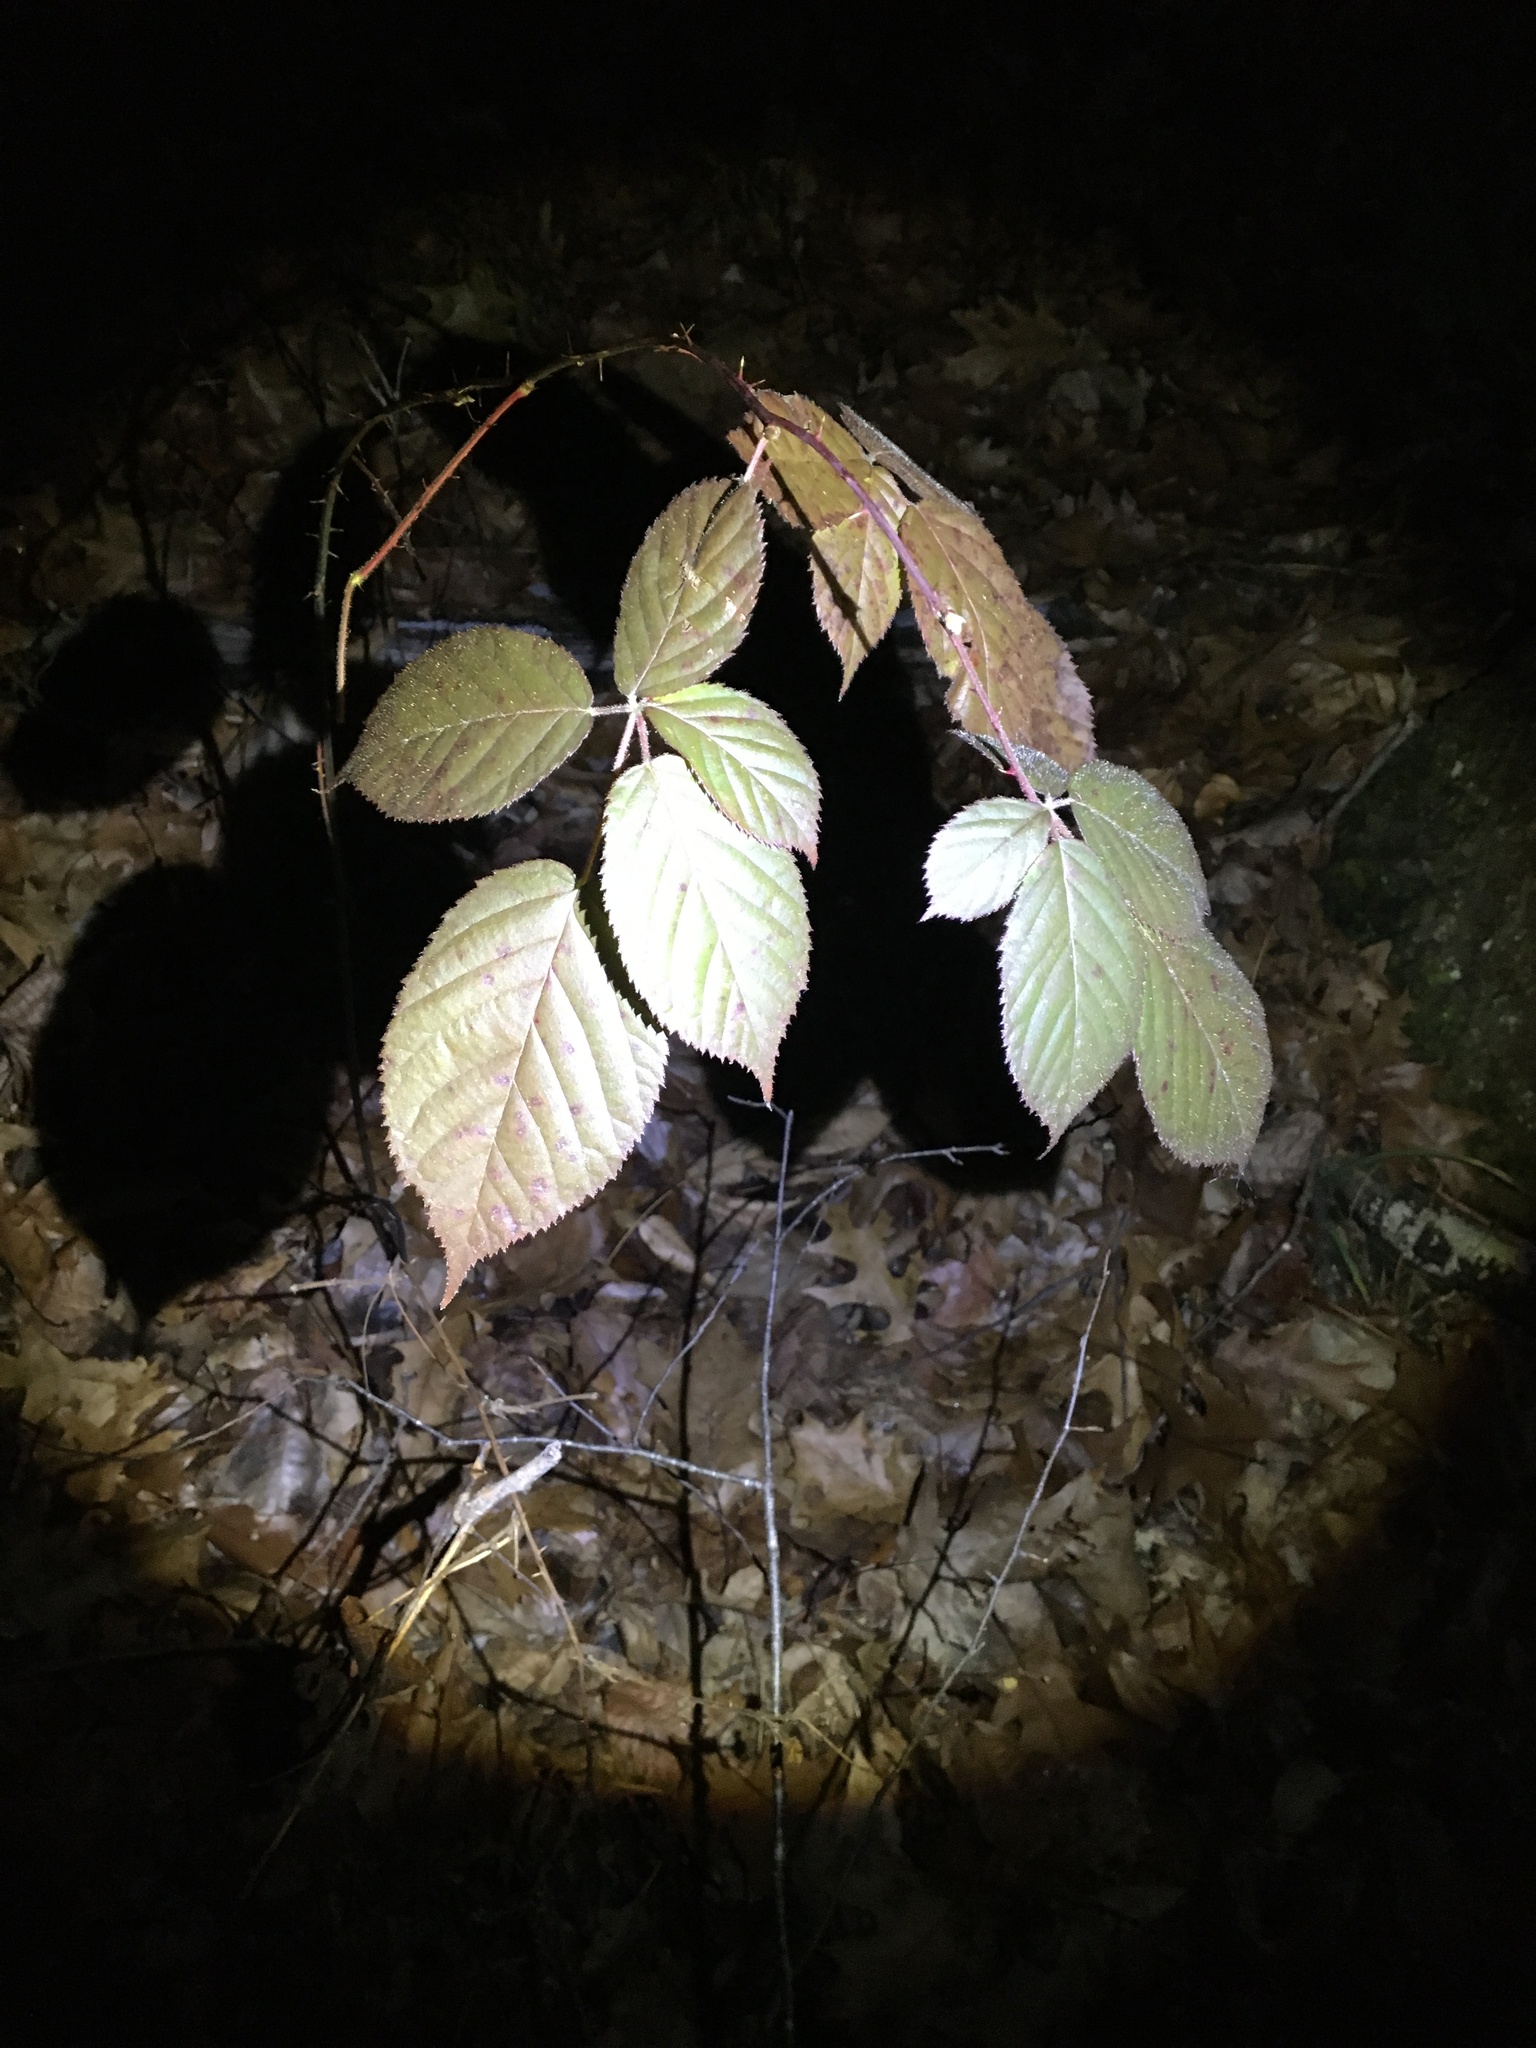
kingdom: Plantae
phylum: Tracheophyta
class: Magnoliopsida
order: Rosales
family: Rosaceae
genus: Rubus
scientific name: Rubus
